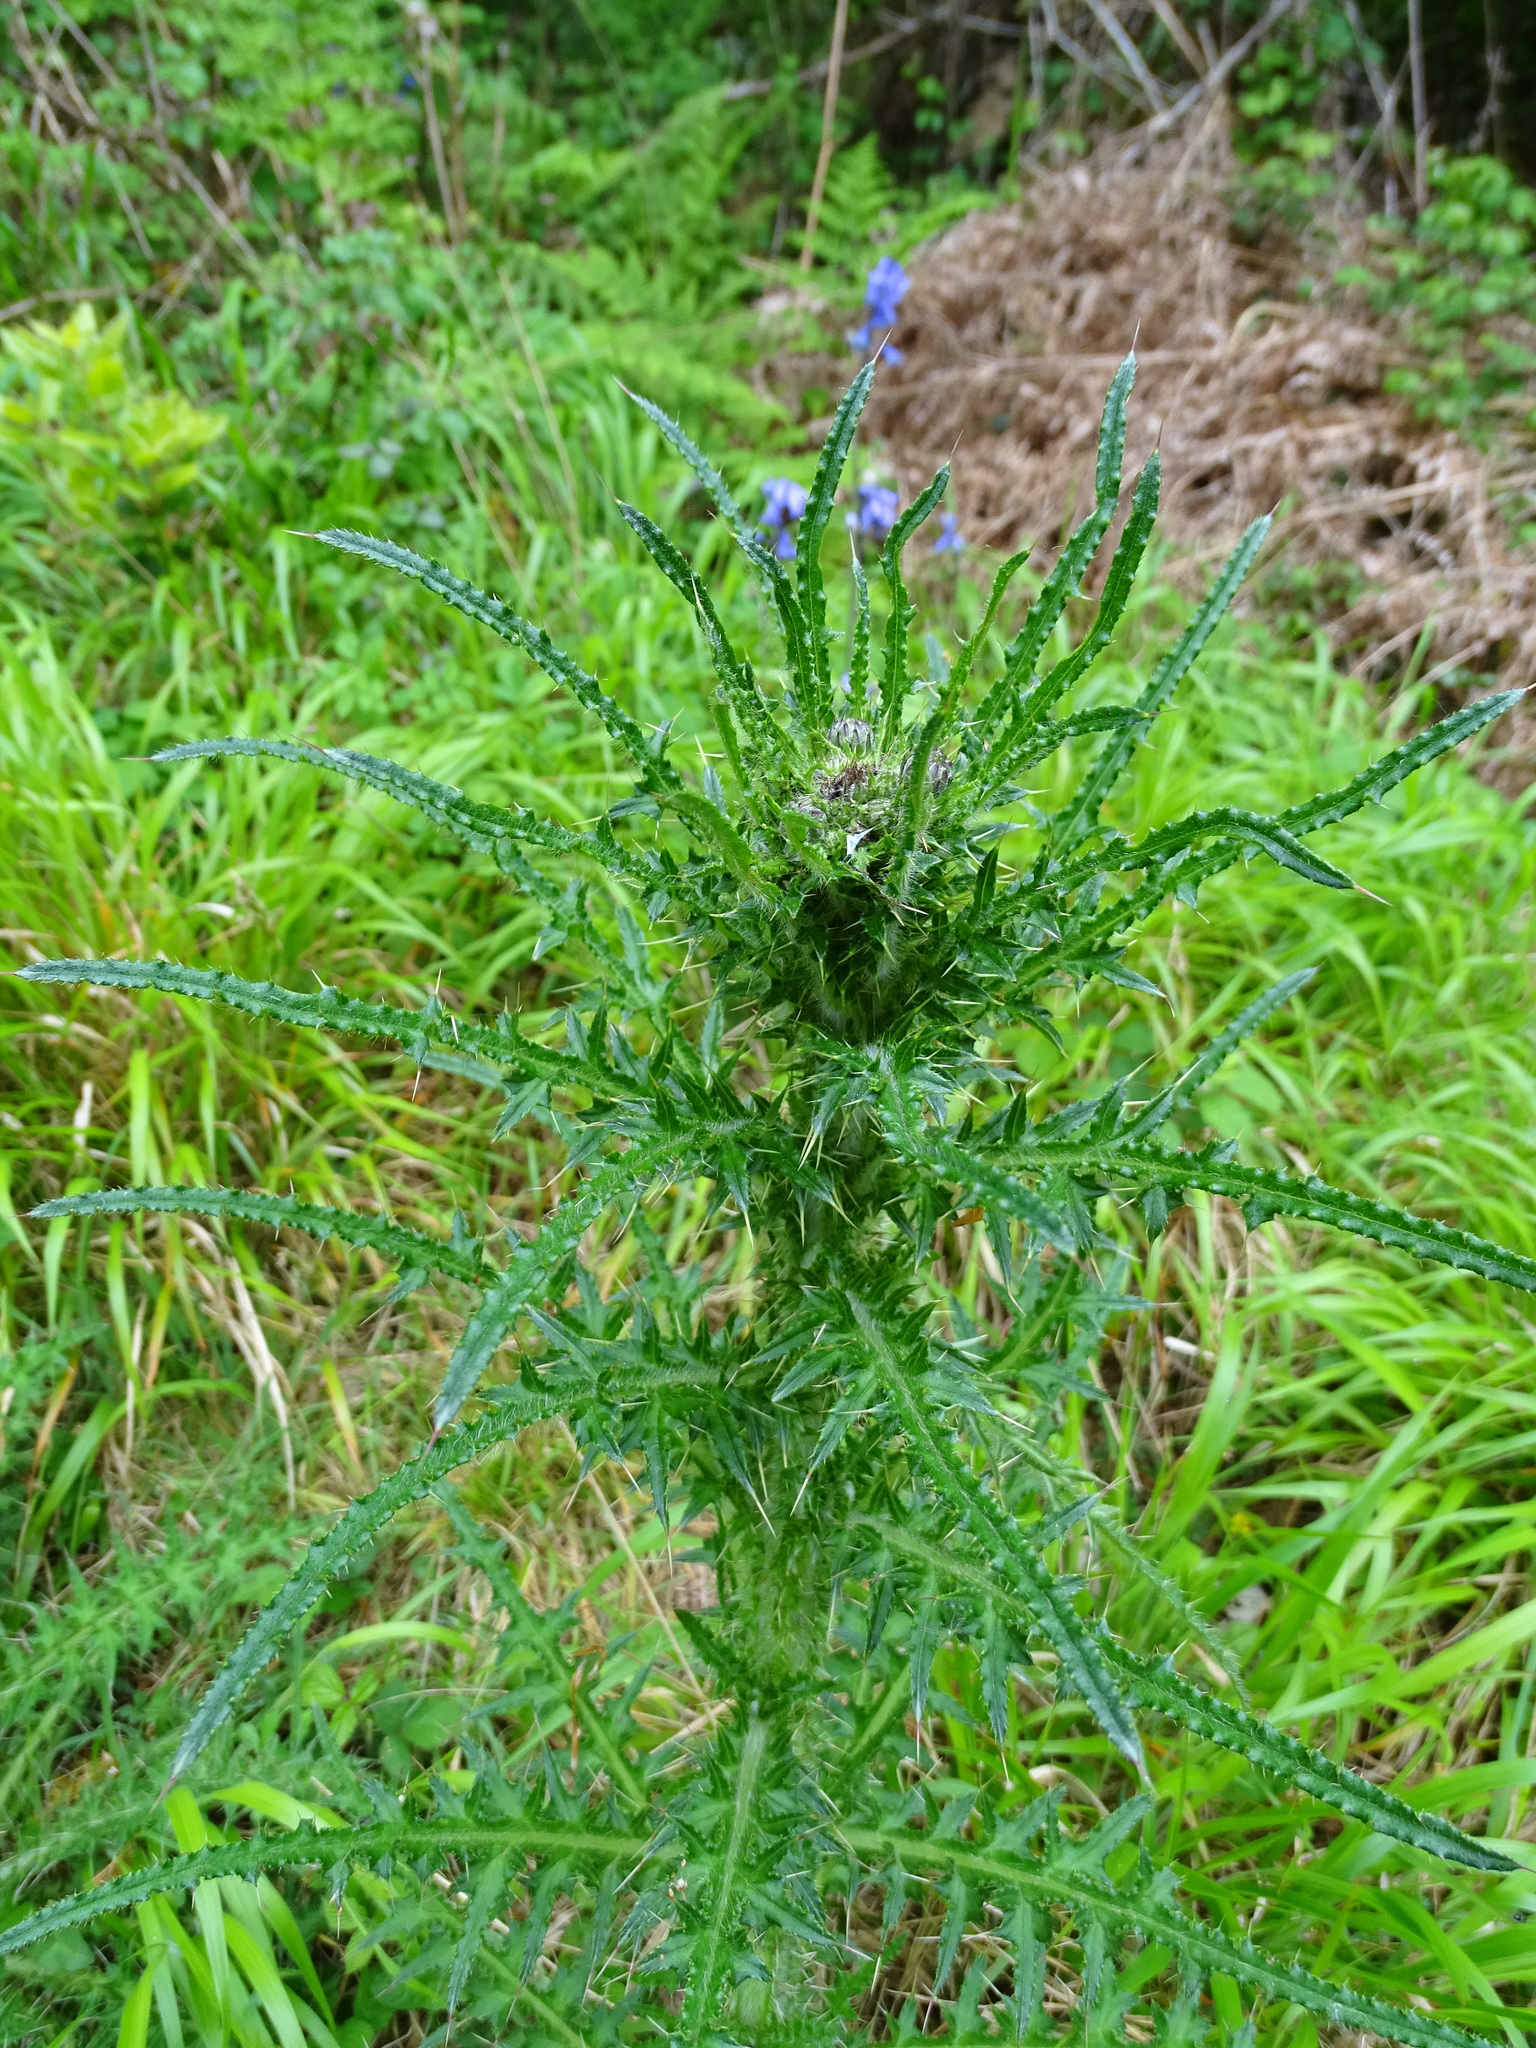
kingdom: Plantae
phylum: Tracheophyta
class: Magnoliopsida
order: Asterales
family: Asteraceae
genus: Cirsium
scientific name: Cirsium palustre
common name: Marsh thistle
